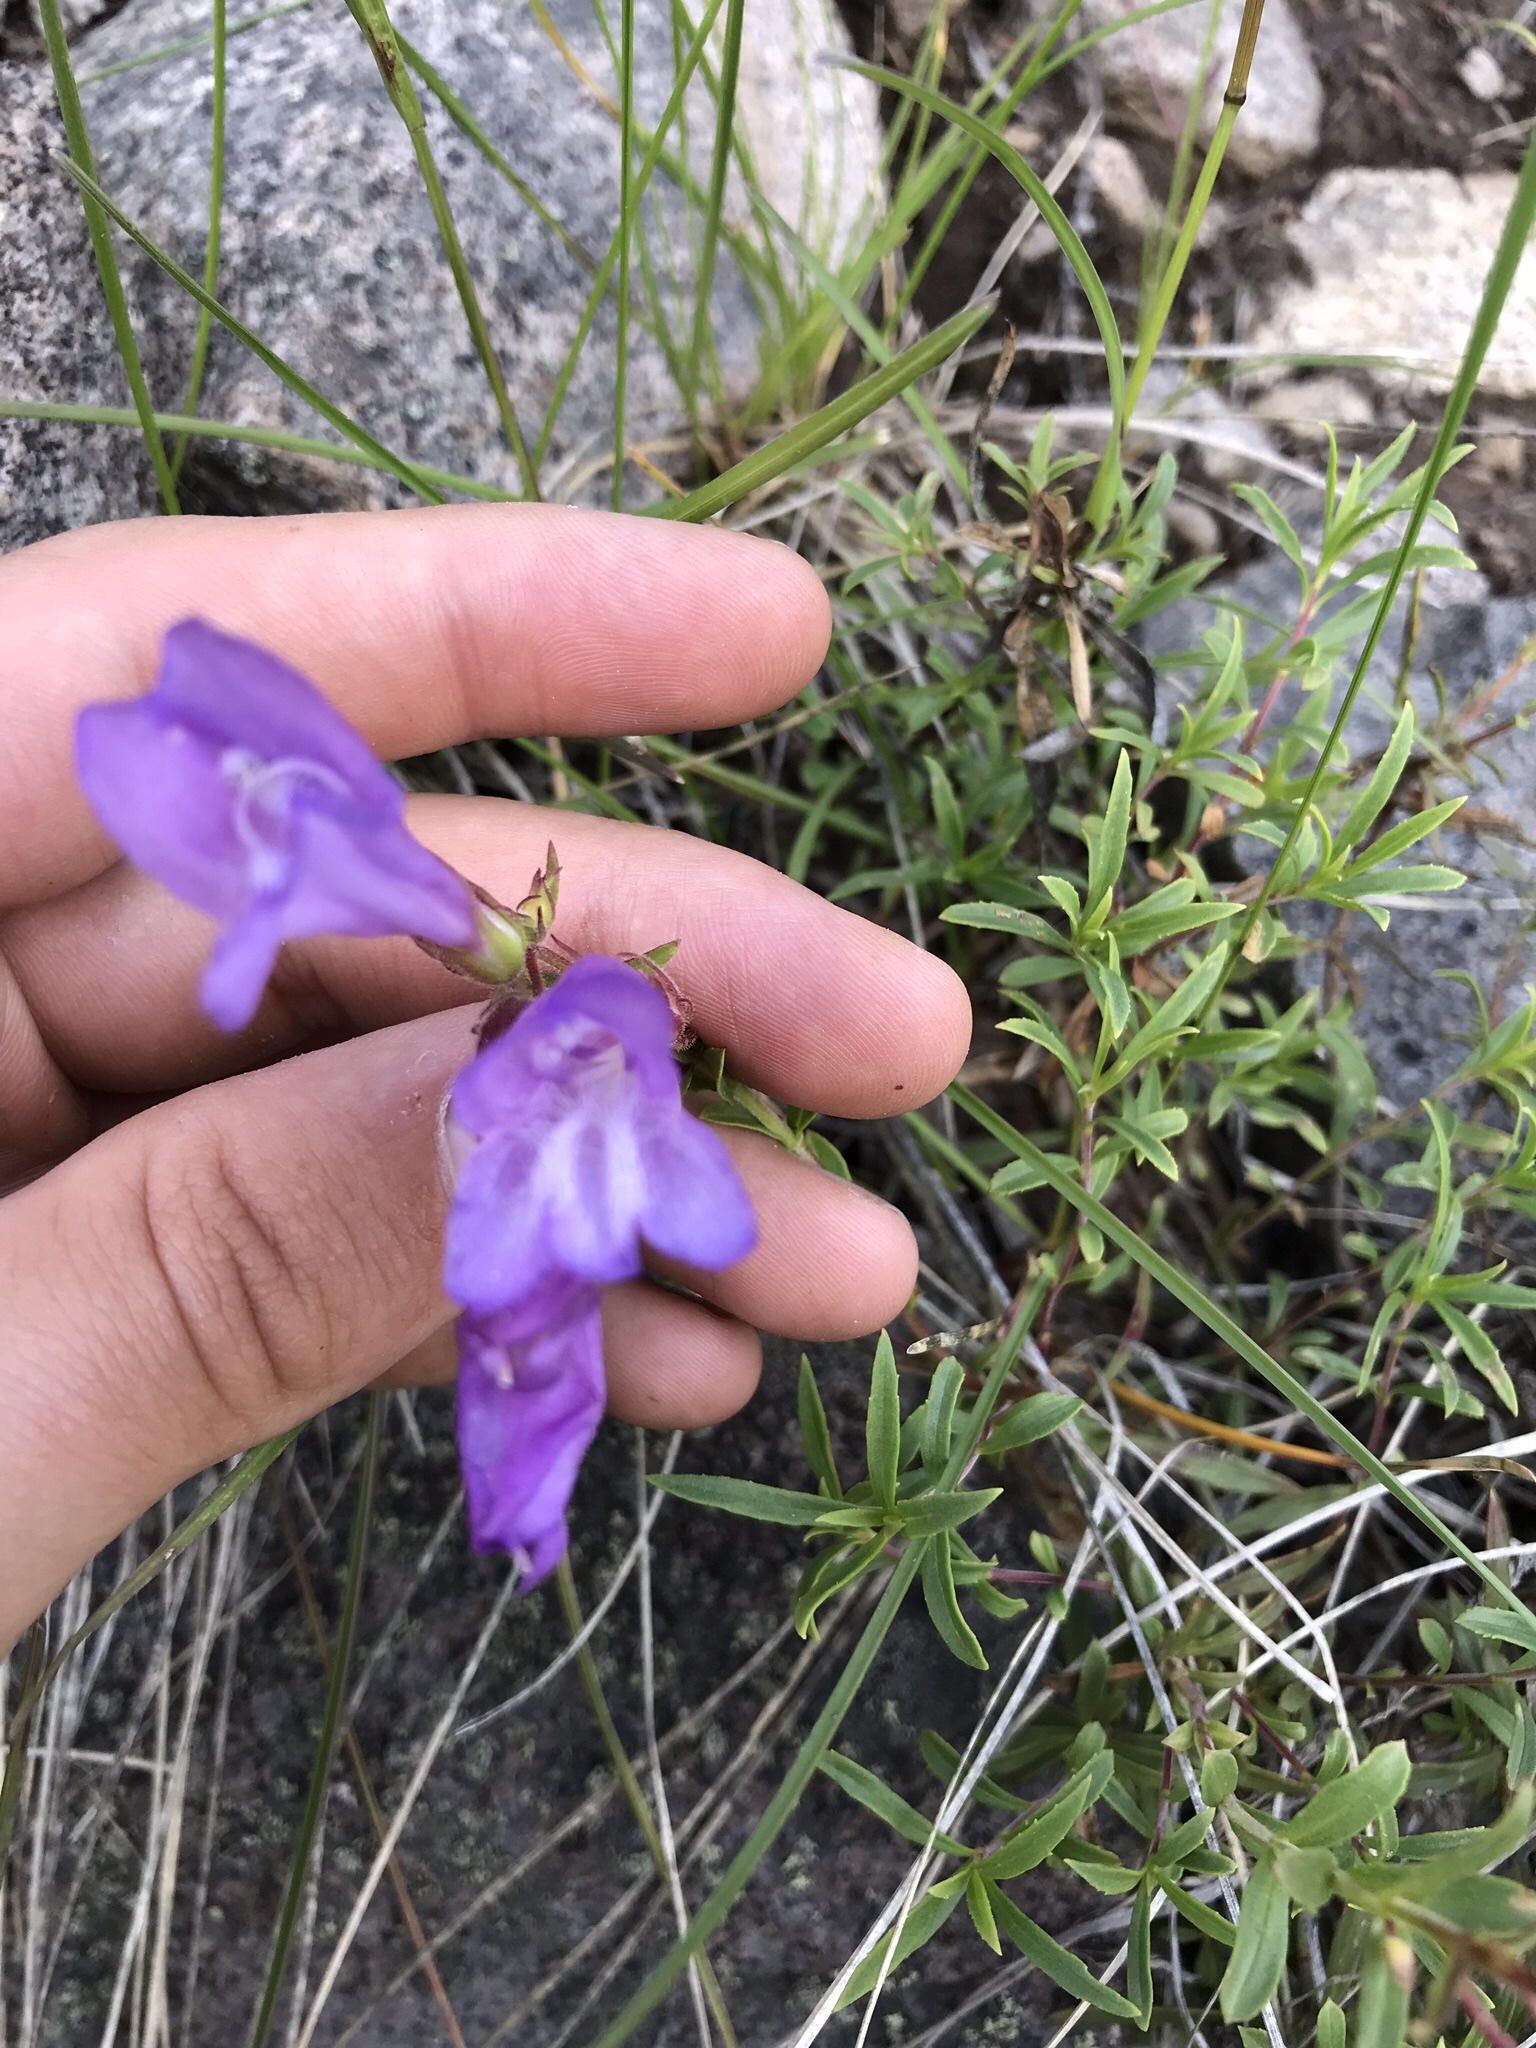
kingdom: Plantae
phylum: Tracheophyta
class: Magnoliopsida
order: Lamiales
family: Plantaginaceae
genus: Penstemon
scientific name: Penstemon fruticosus
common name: Bush penstemon
